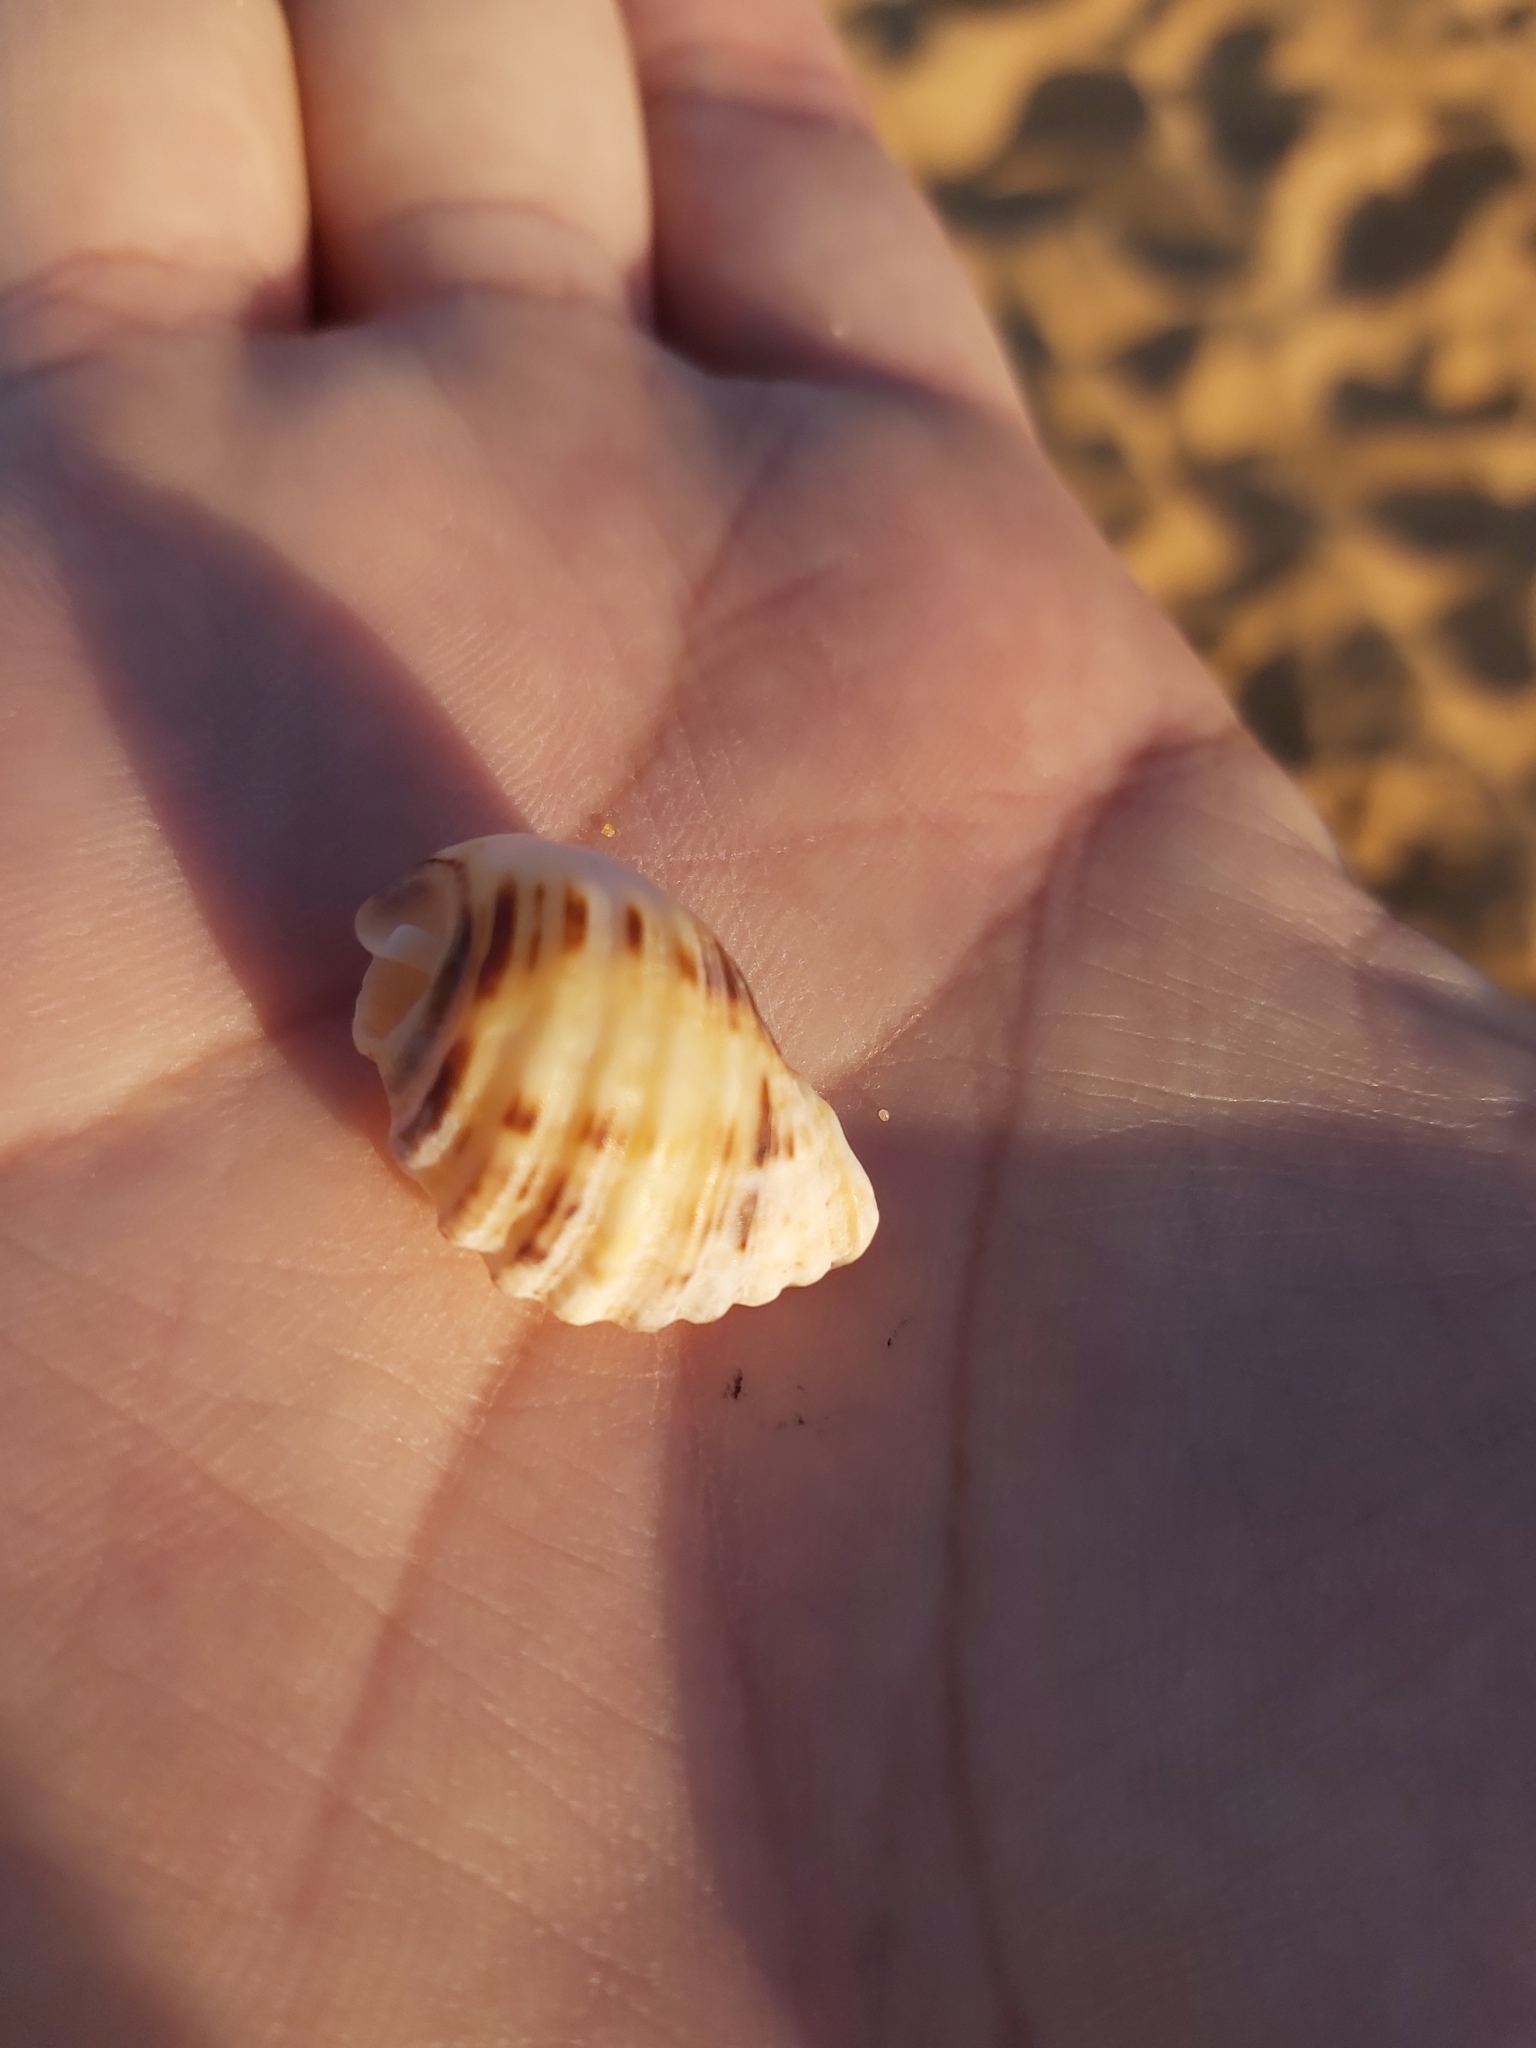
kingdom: Animalia
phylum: Mollusca
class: Gastropoda
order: Neogastropoda
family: Muricidae
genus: Dicathais
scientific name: Dicathais orbita
